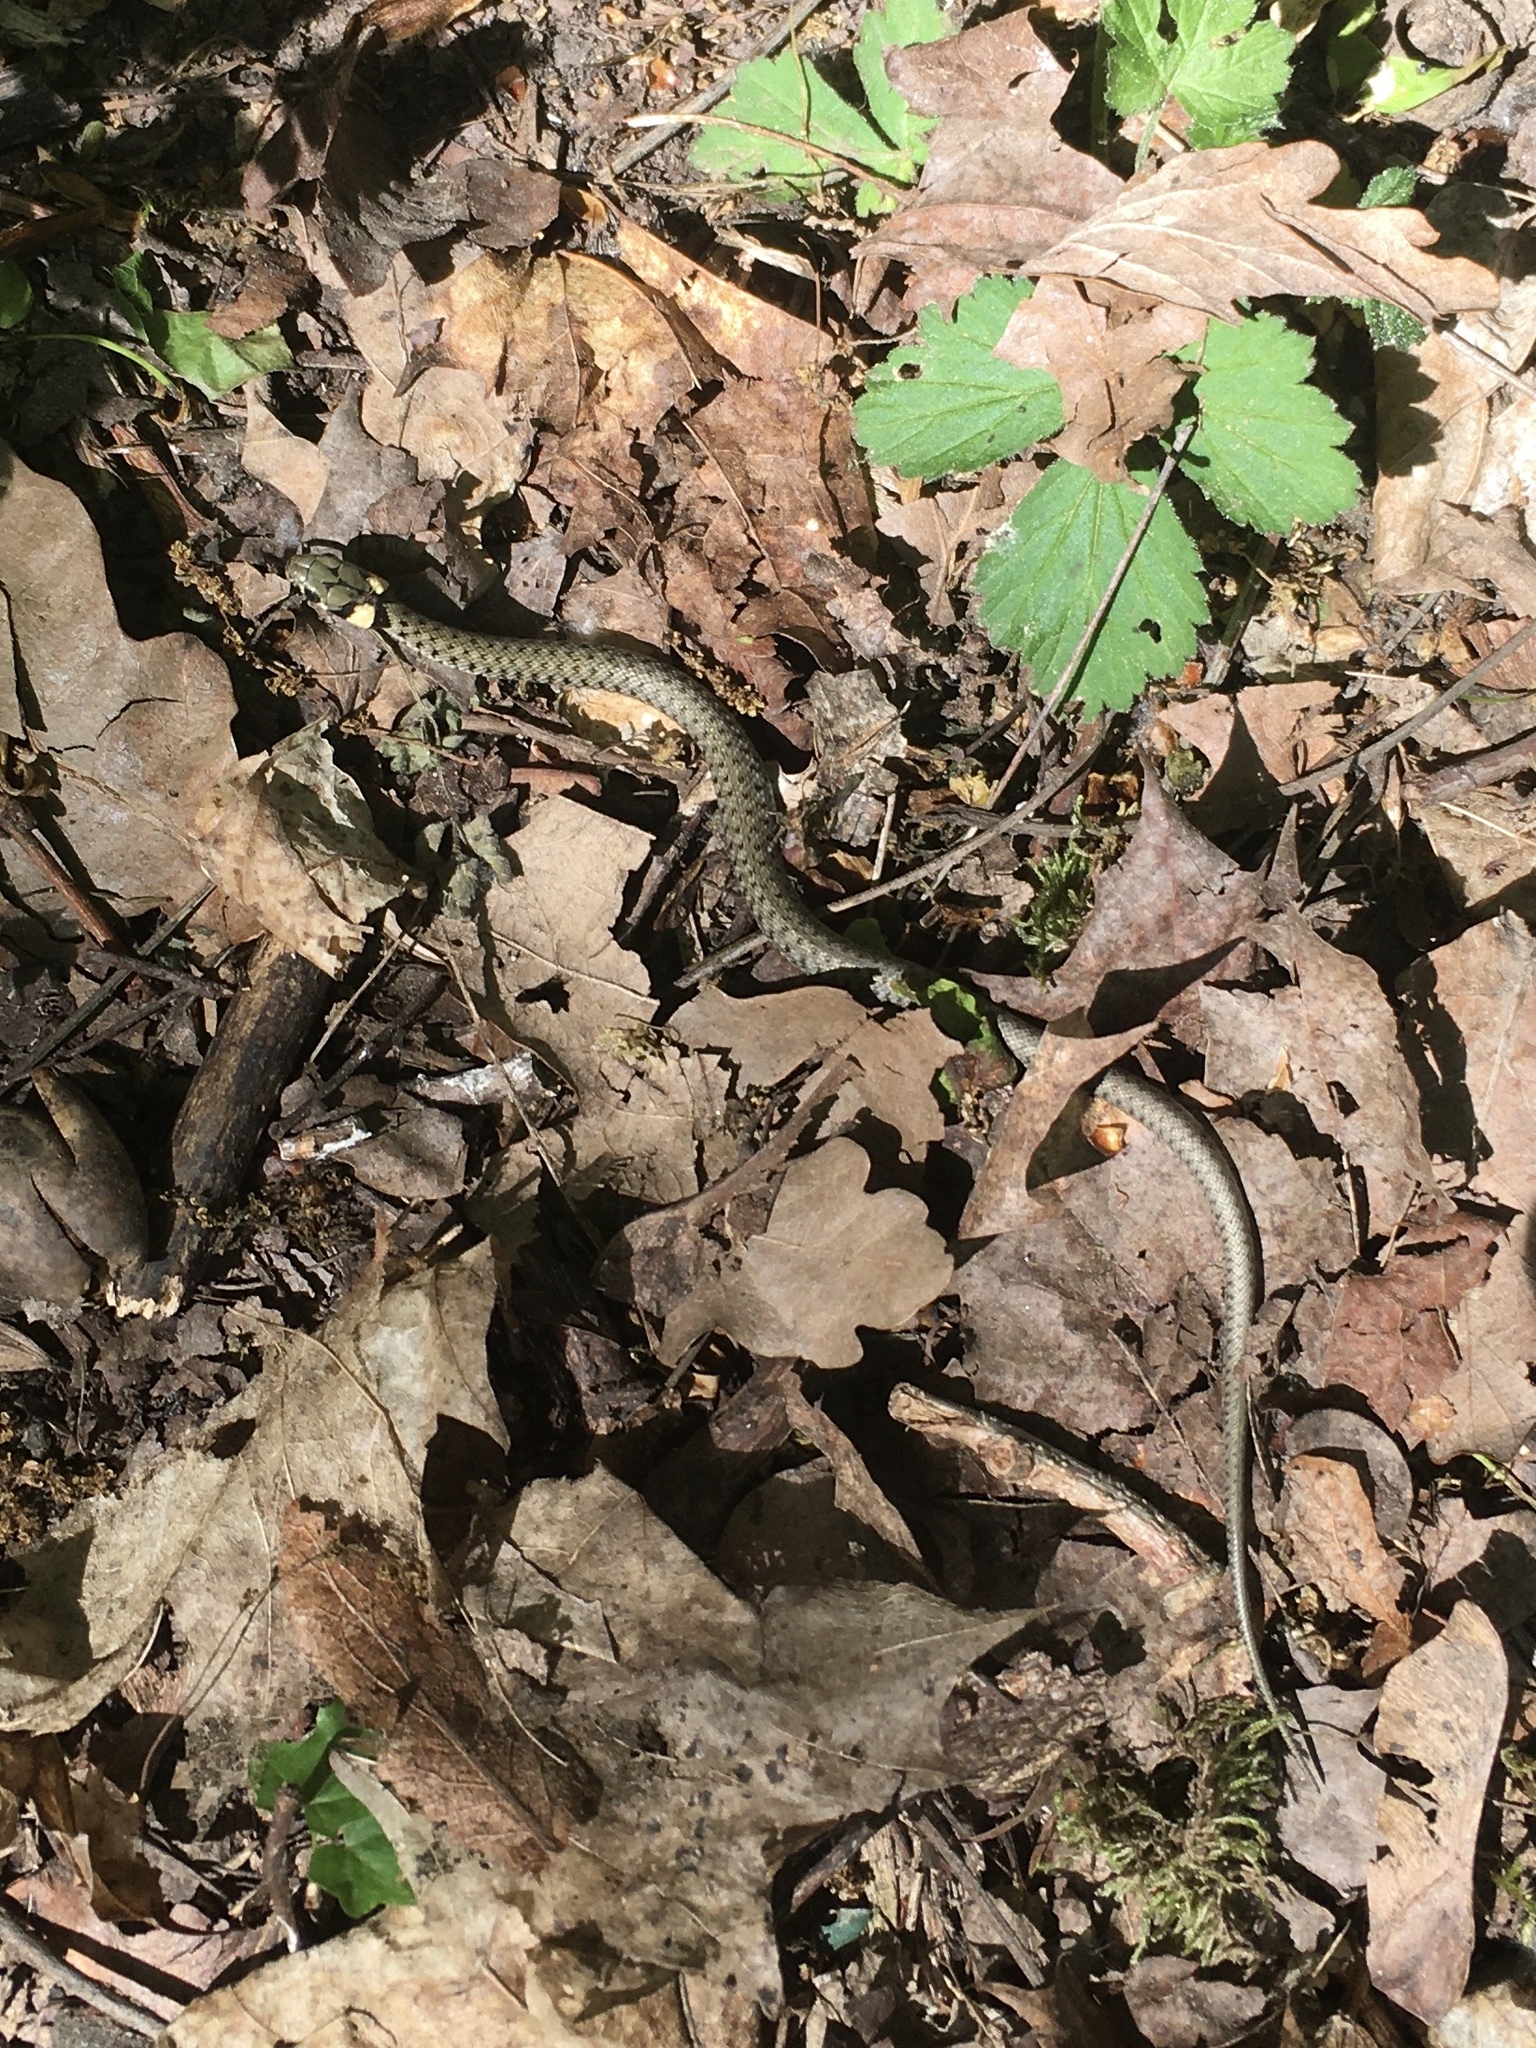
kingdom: Animalia
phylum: Chordata
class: Squamata
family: Colubridae
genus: Natrix
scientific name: Natrix natrix
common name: Grass snake
